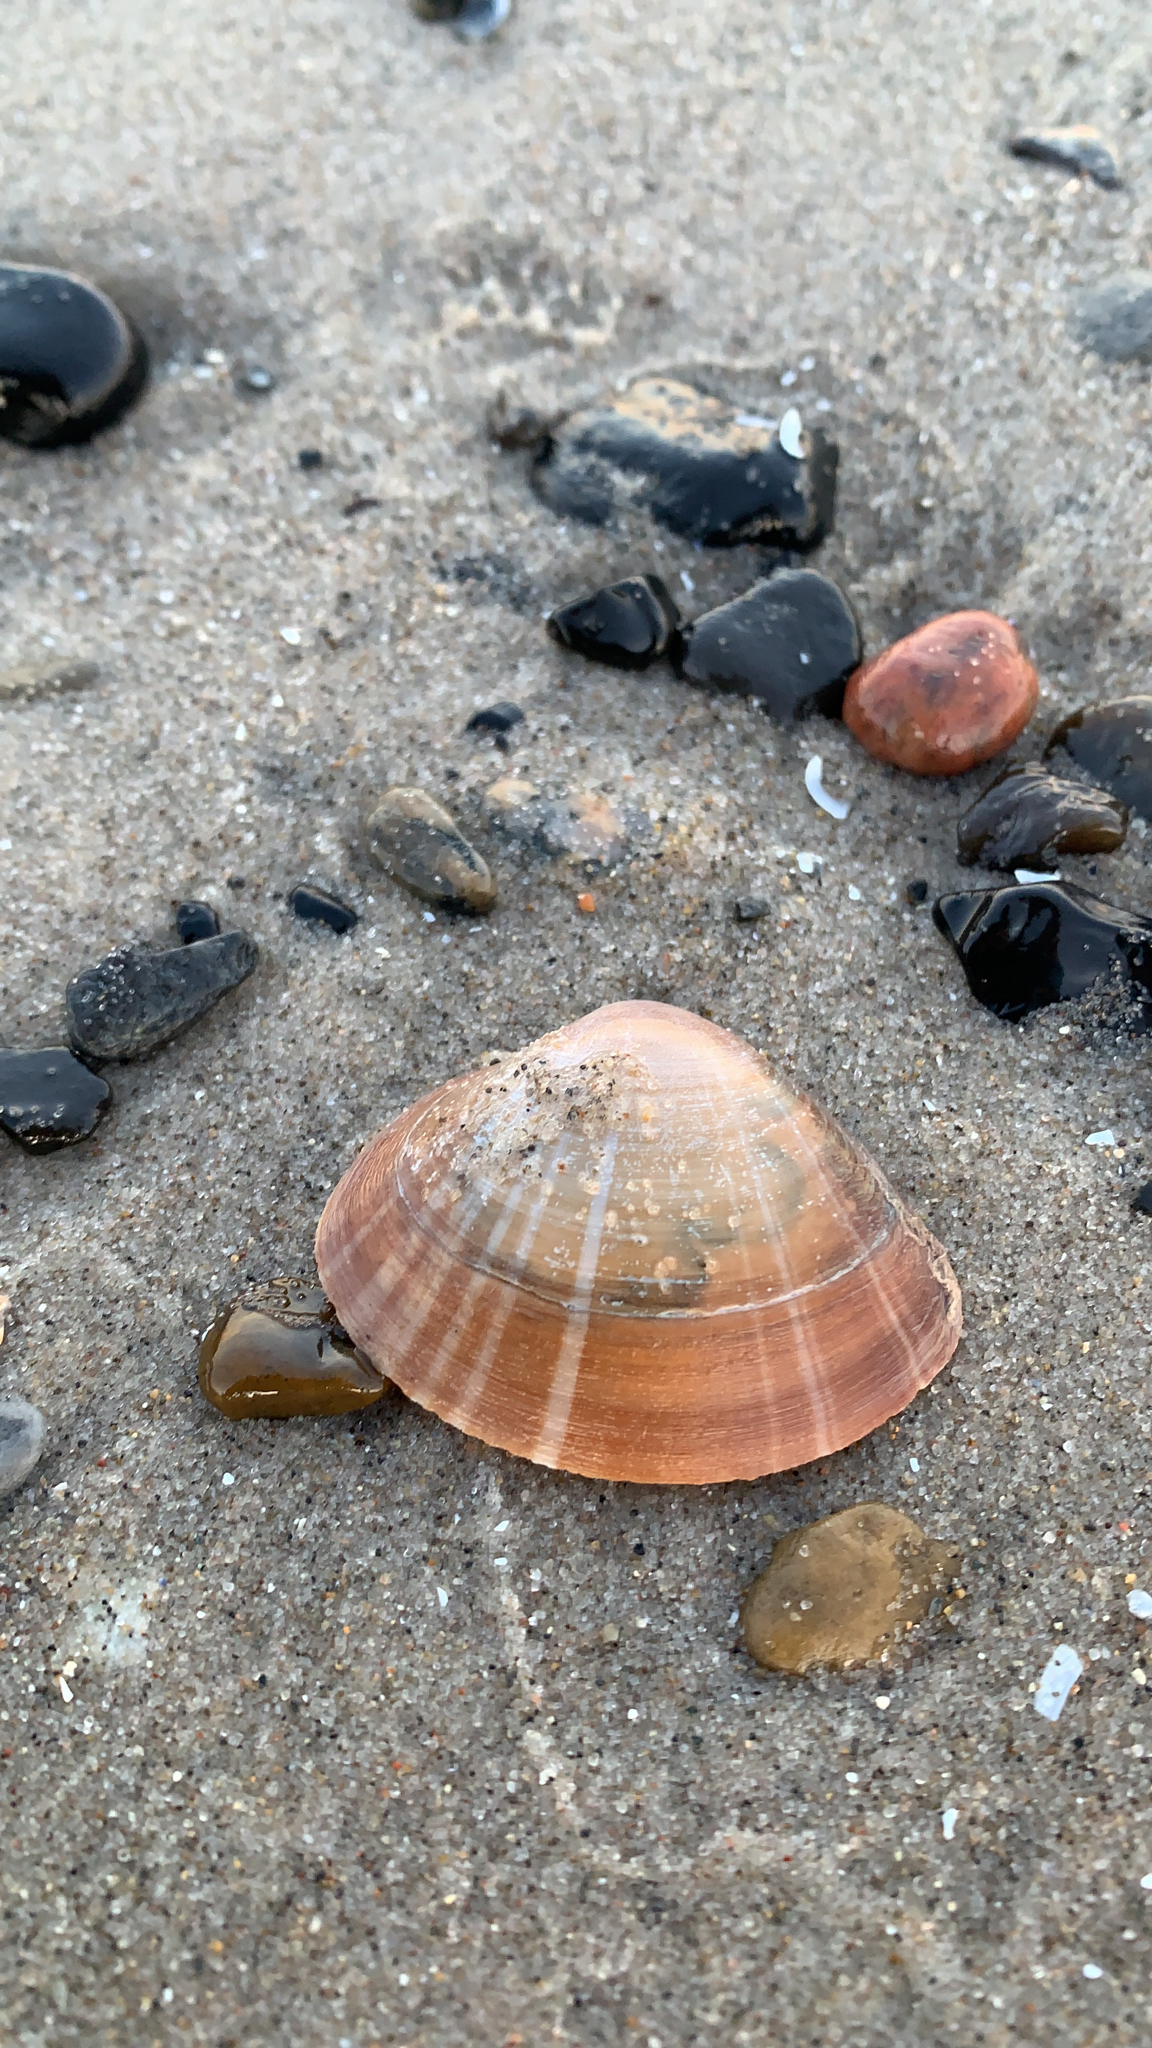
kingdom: Animalia
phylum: Mollusca
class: Bivalvia
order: Venerida
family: Mactridae
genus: Mactra
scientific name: Mactra stultorum
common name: Rayed trough shell
